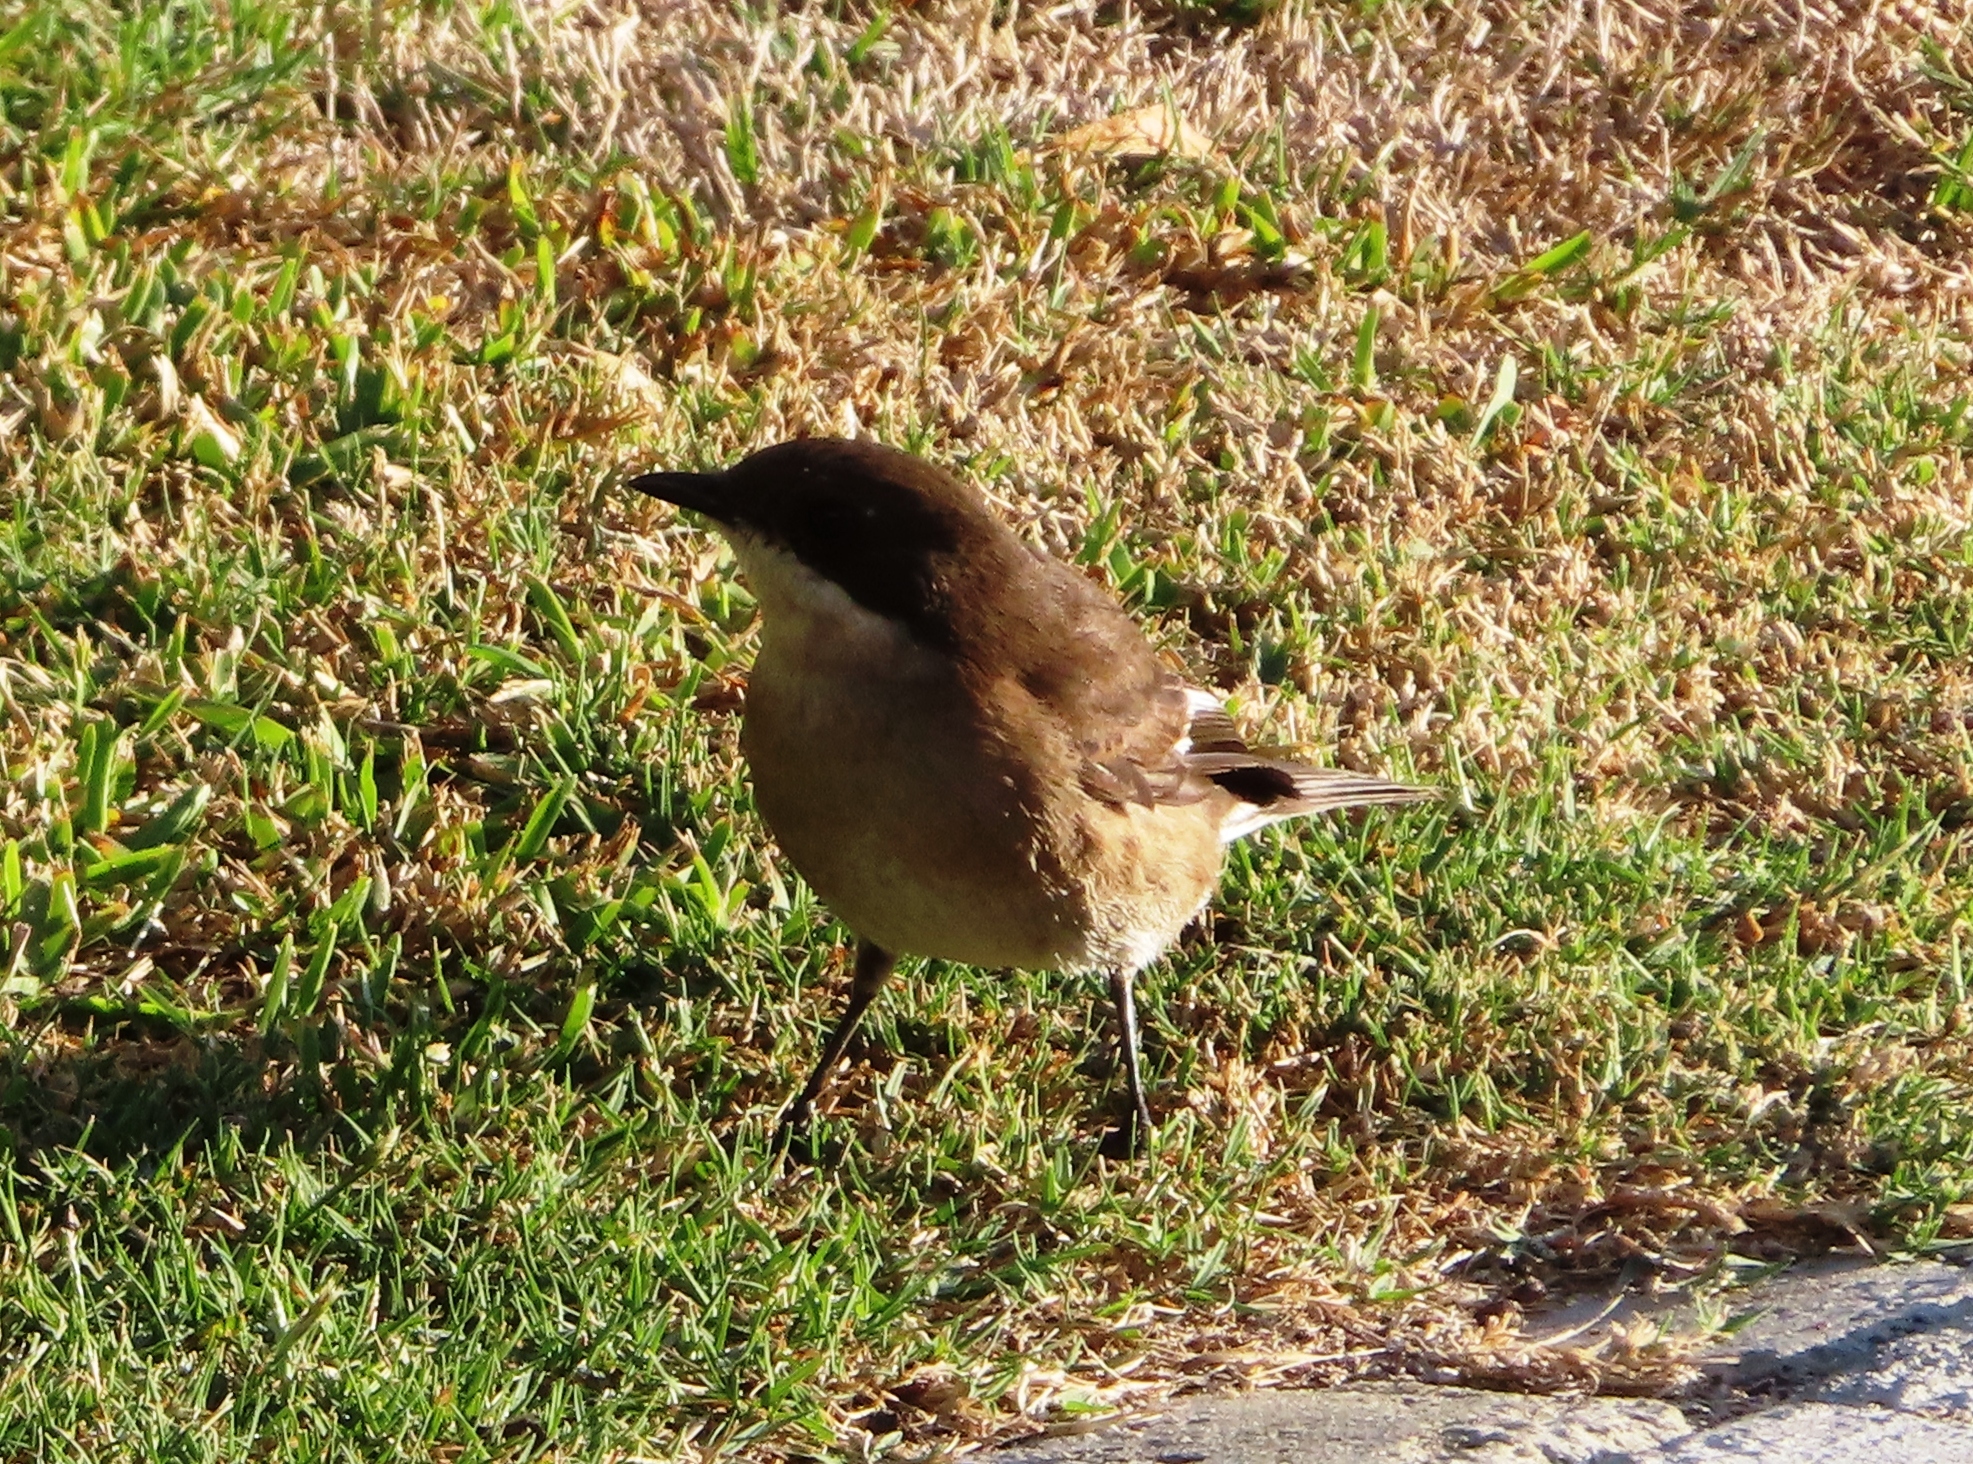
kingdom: Animalia
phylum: Chordata
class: Aves
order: Passeriformes
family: Muscicapidae
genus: Sigelus
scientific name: Sigelus silens
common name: Fiscal flycatcher
